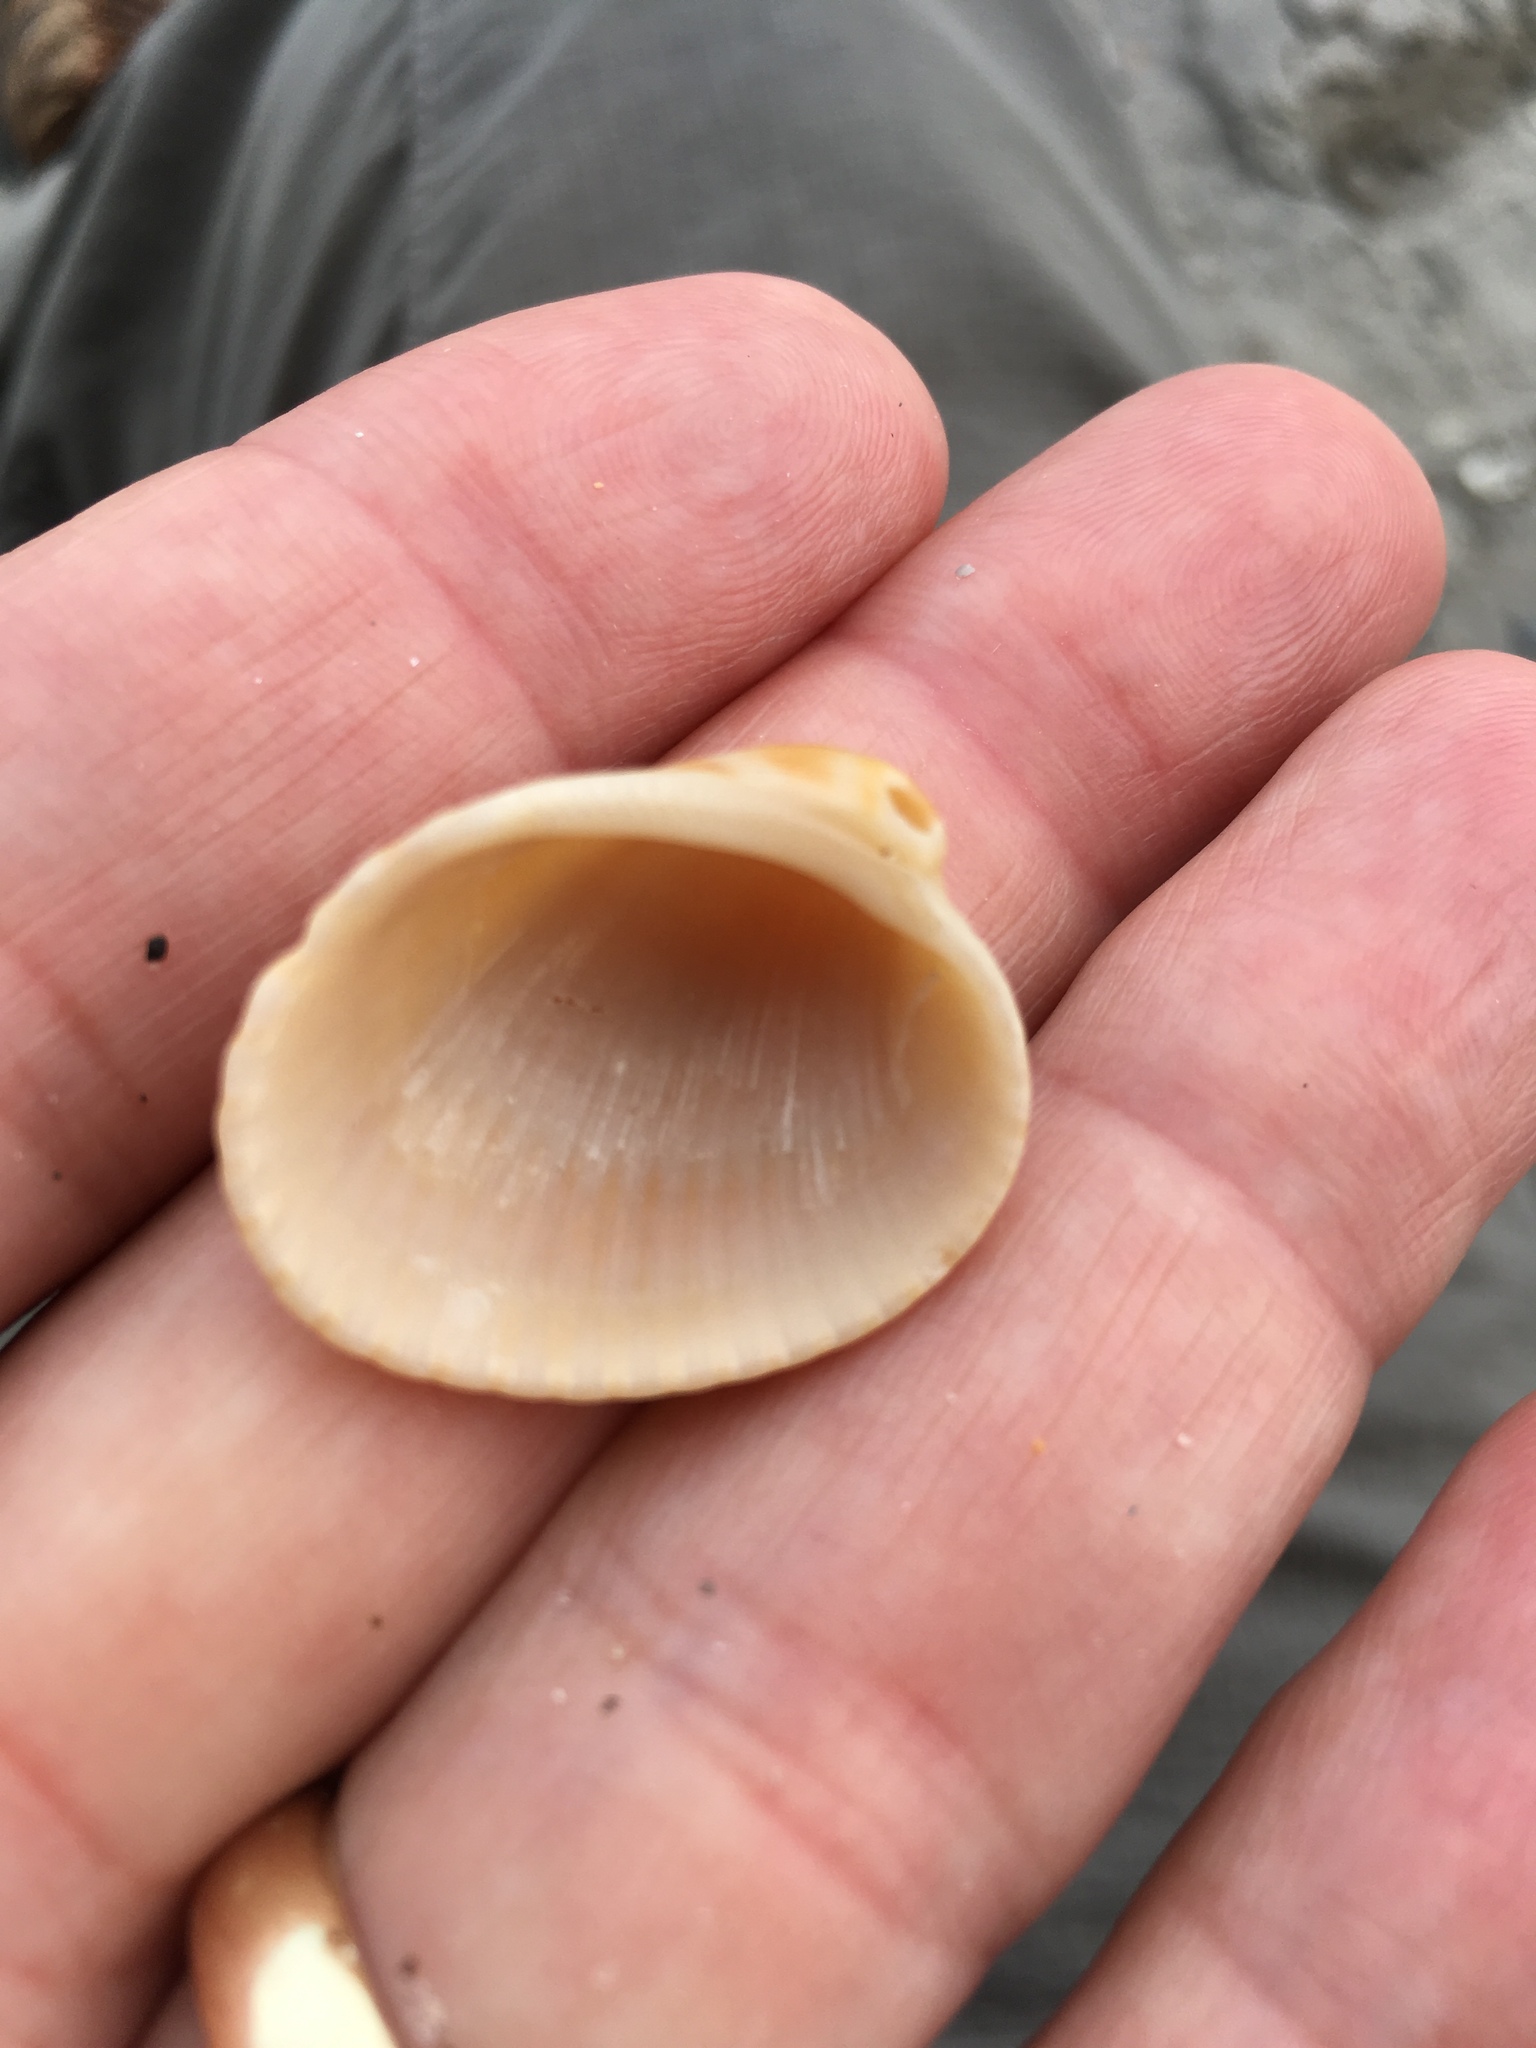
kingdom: Animalia
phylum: Mollusca
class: Bivalvia
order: Arcida
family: Arcidae
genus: Lunarca
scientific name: Lunarca ovalis
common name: Blood ark
